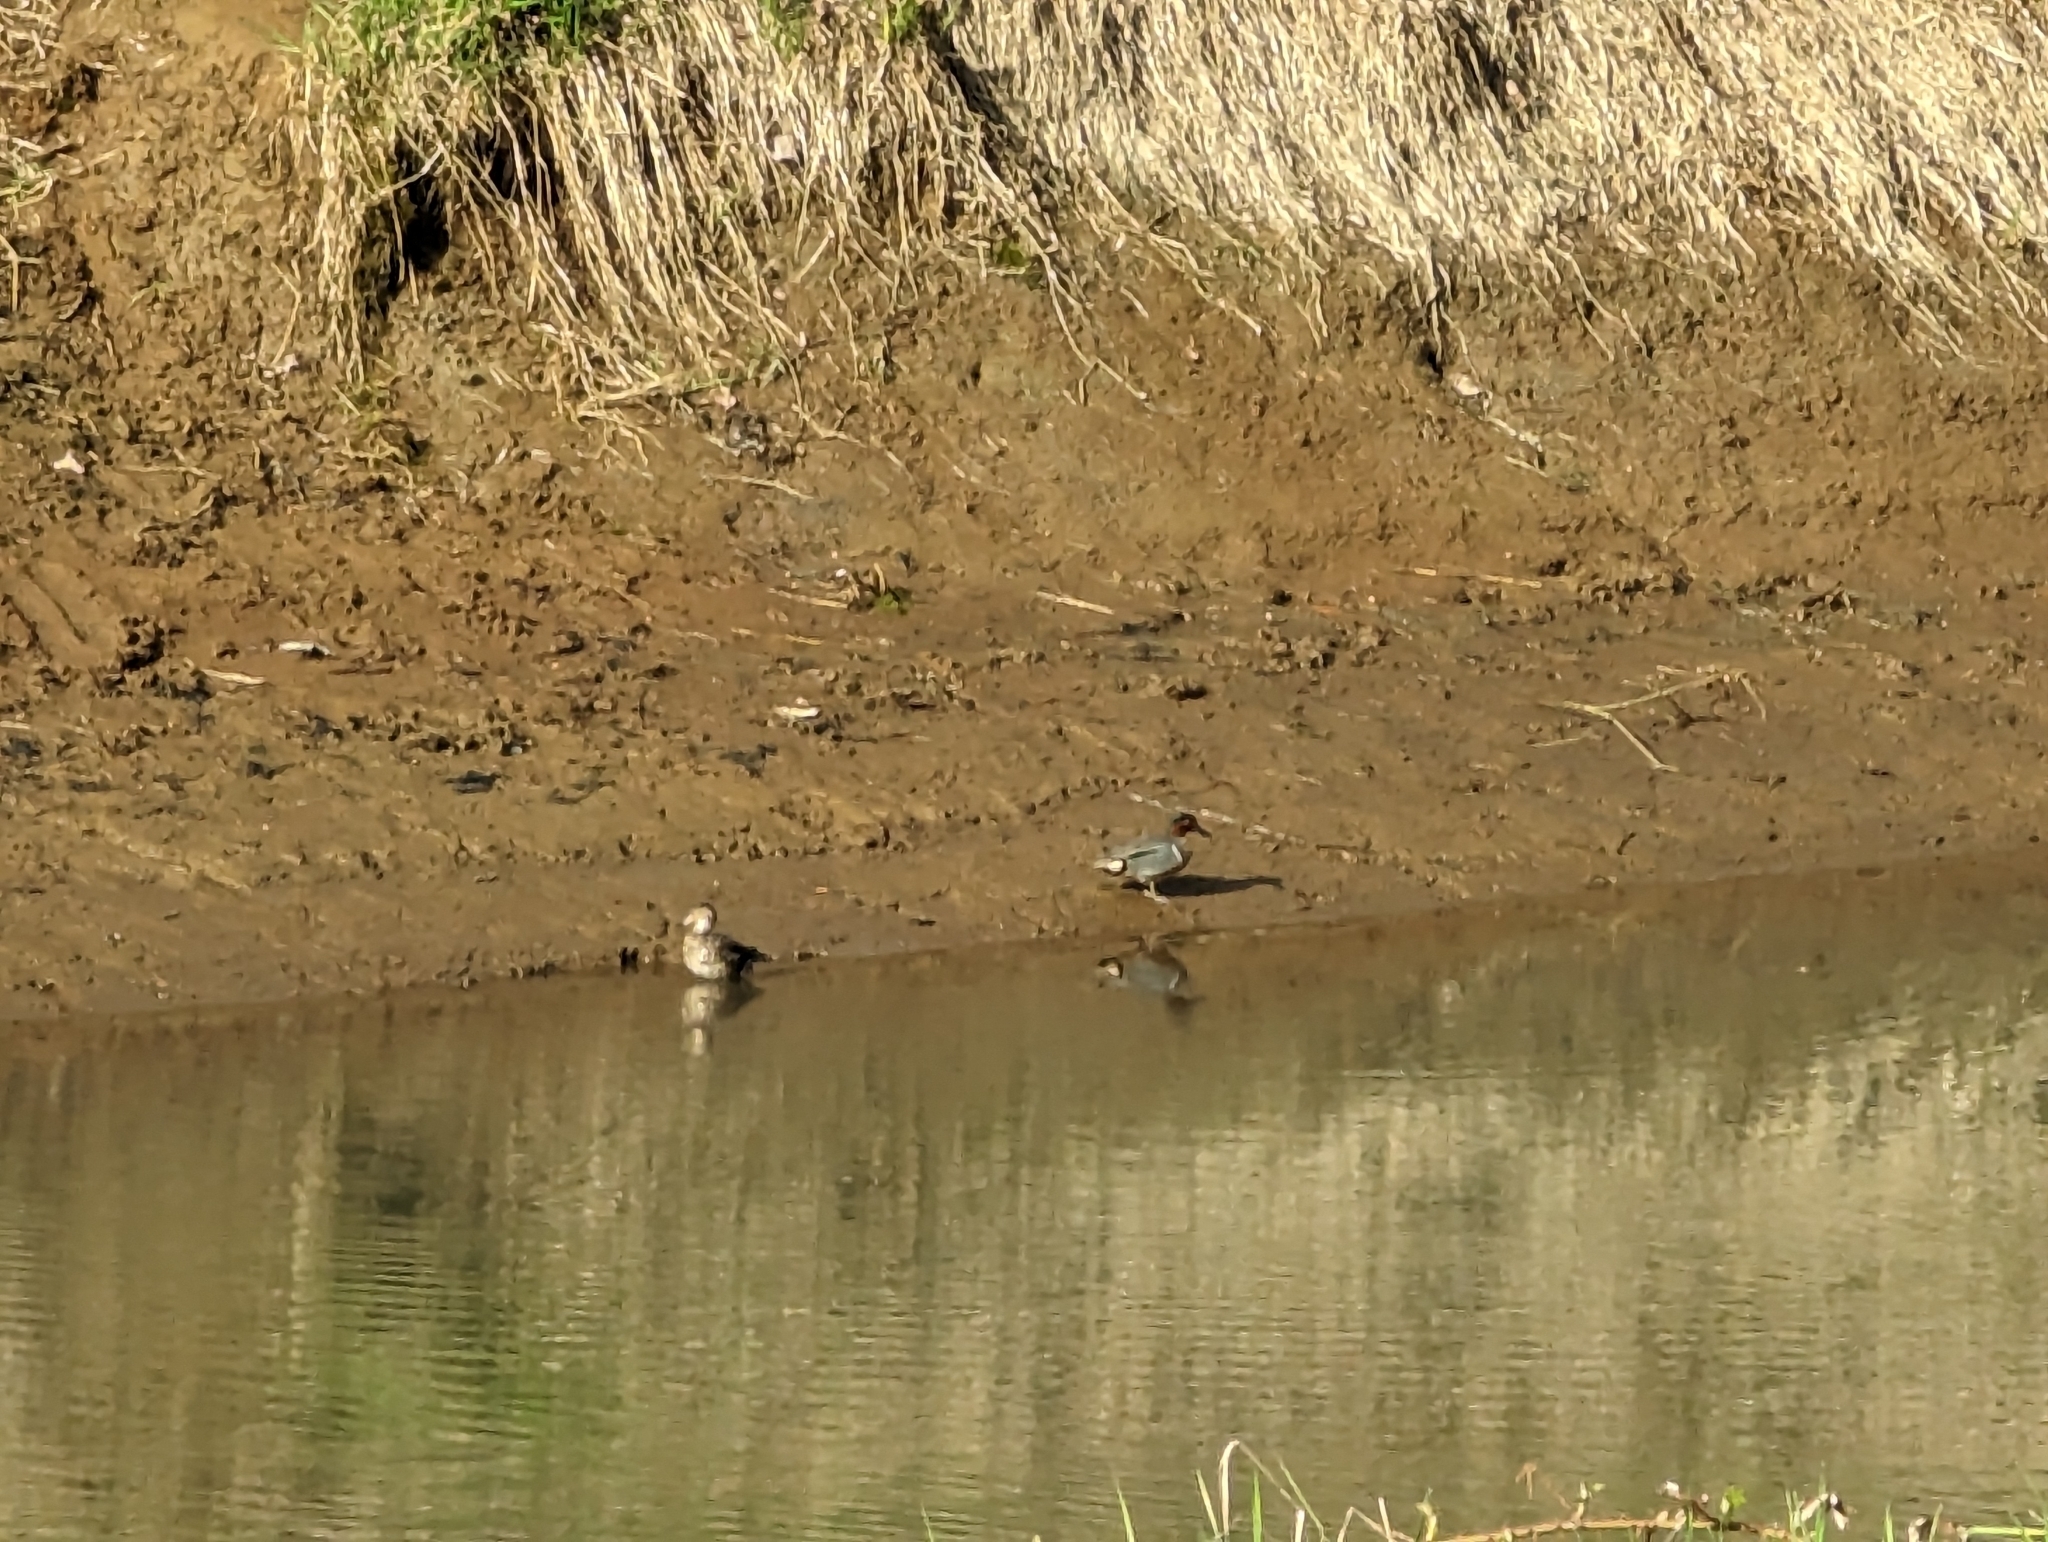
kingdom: Animalia
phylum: Chordata
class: Aves
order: Anseriformes
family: Anatidae
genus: Anas
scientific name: Anas crecca
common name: Eurasian teal
